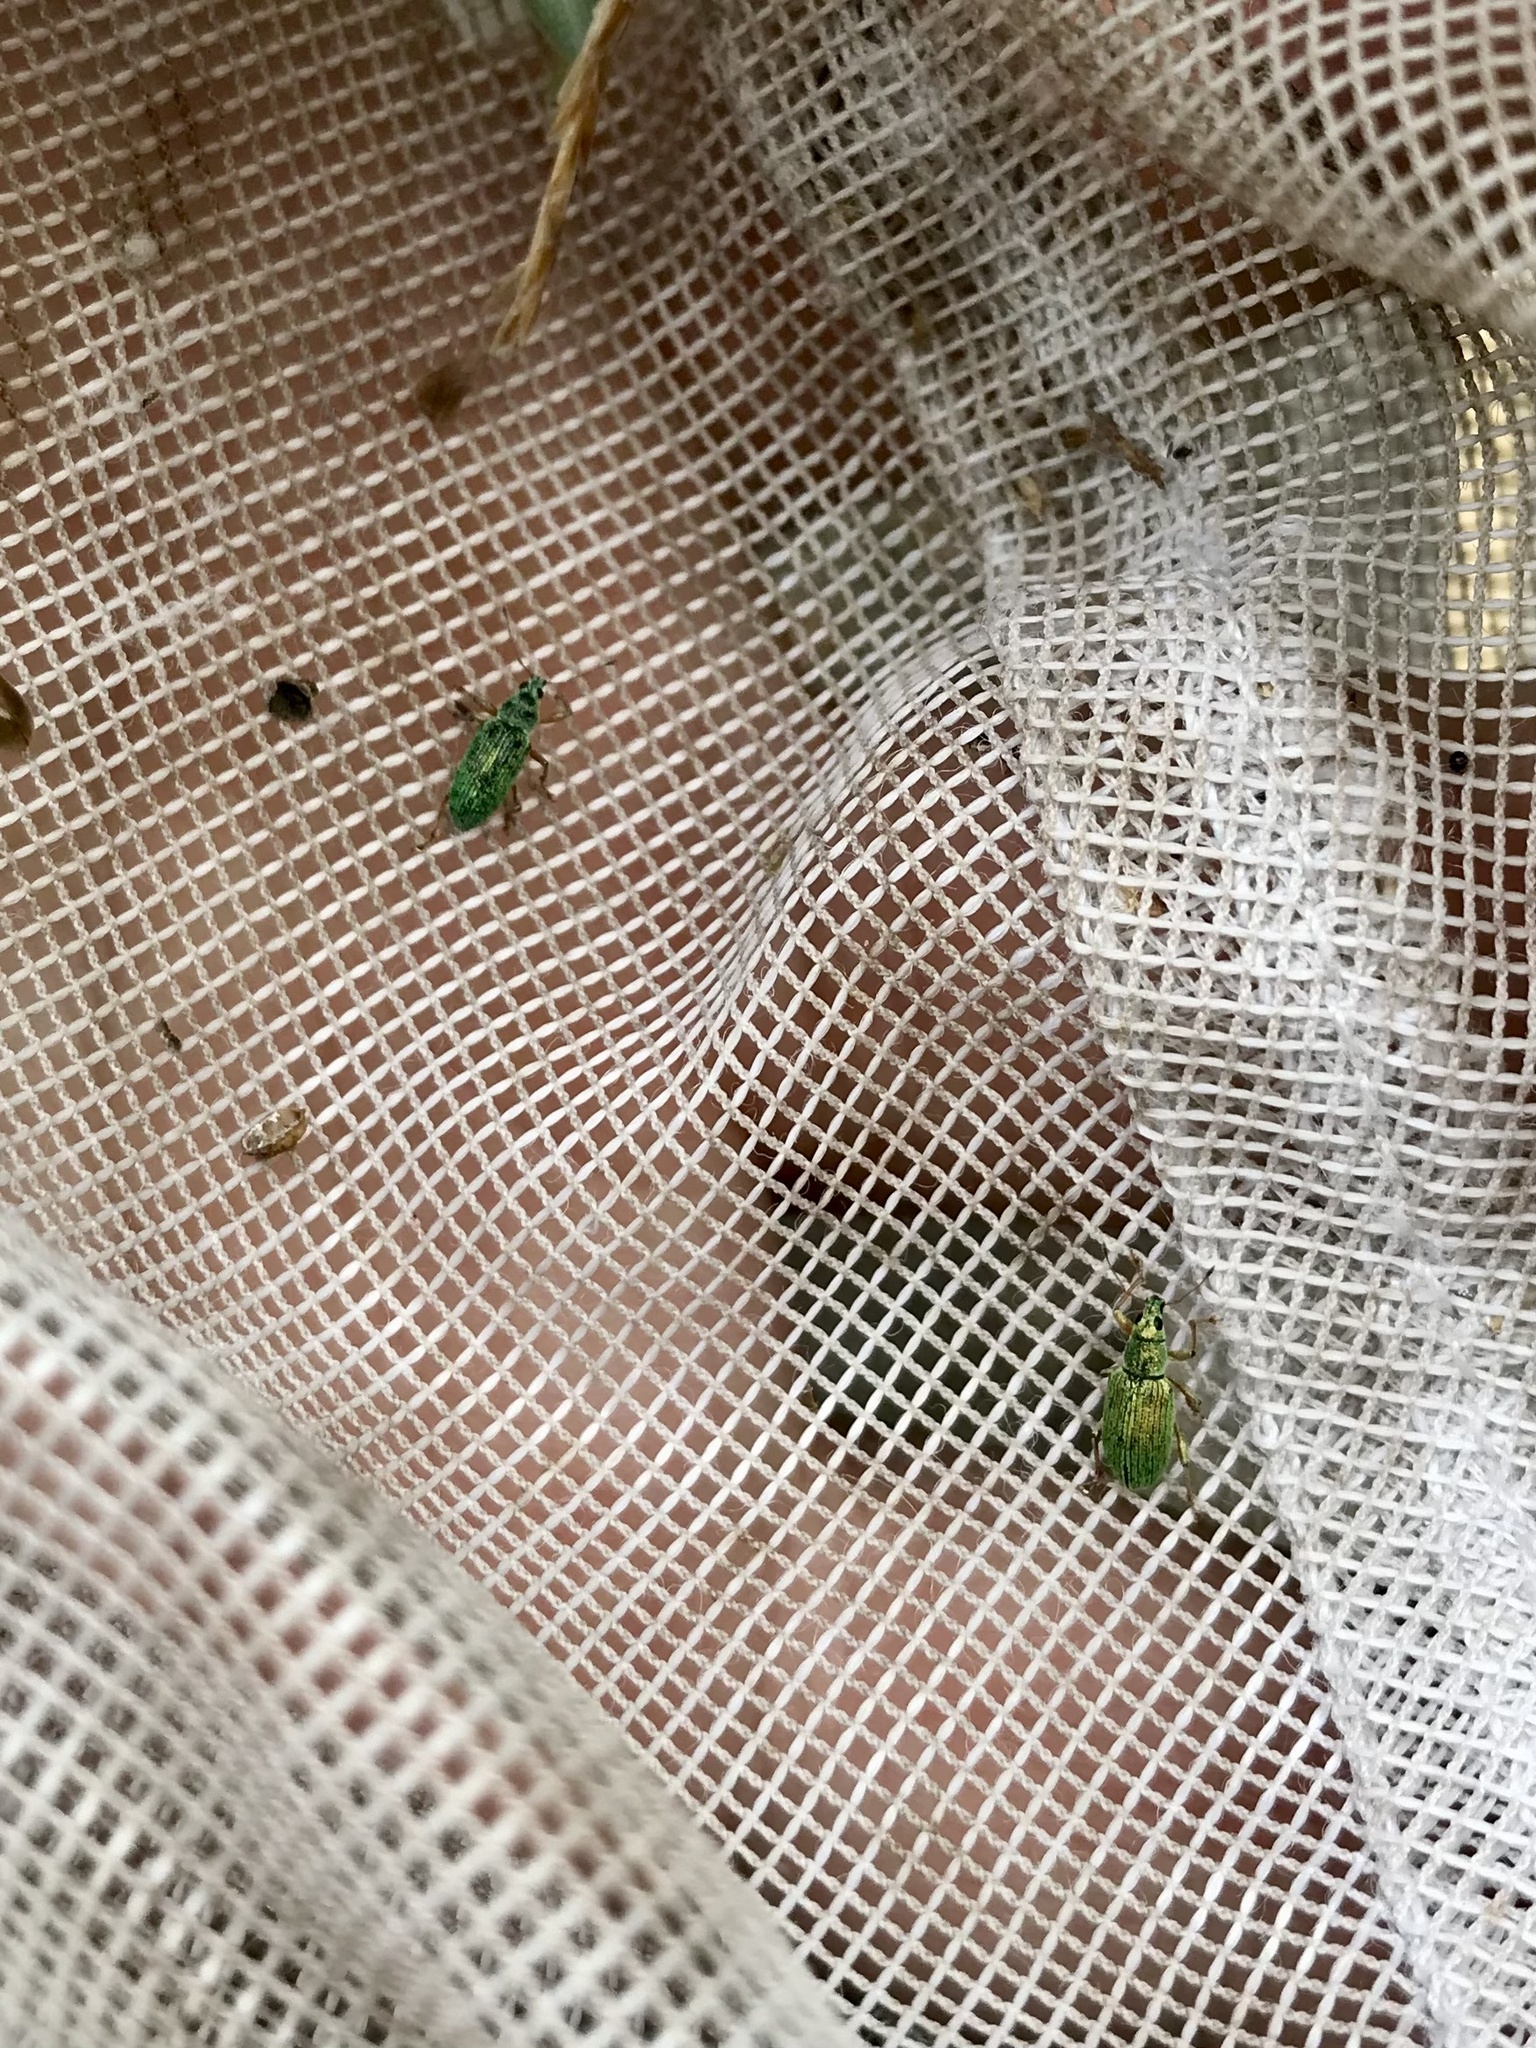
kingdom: Animalia
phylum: Arthropoda
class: Insecta
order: Coleoptera
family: Curculionidae
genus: Polydrusus
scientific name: Polydrusus formosus
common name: Weevil
